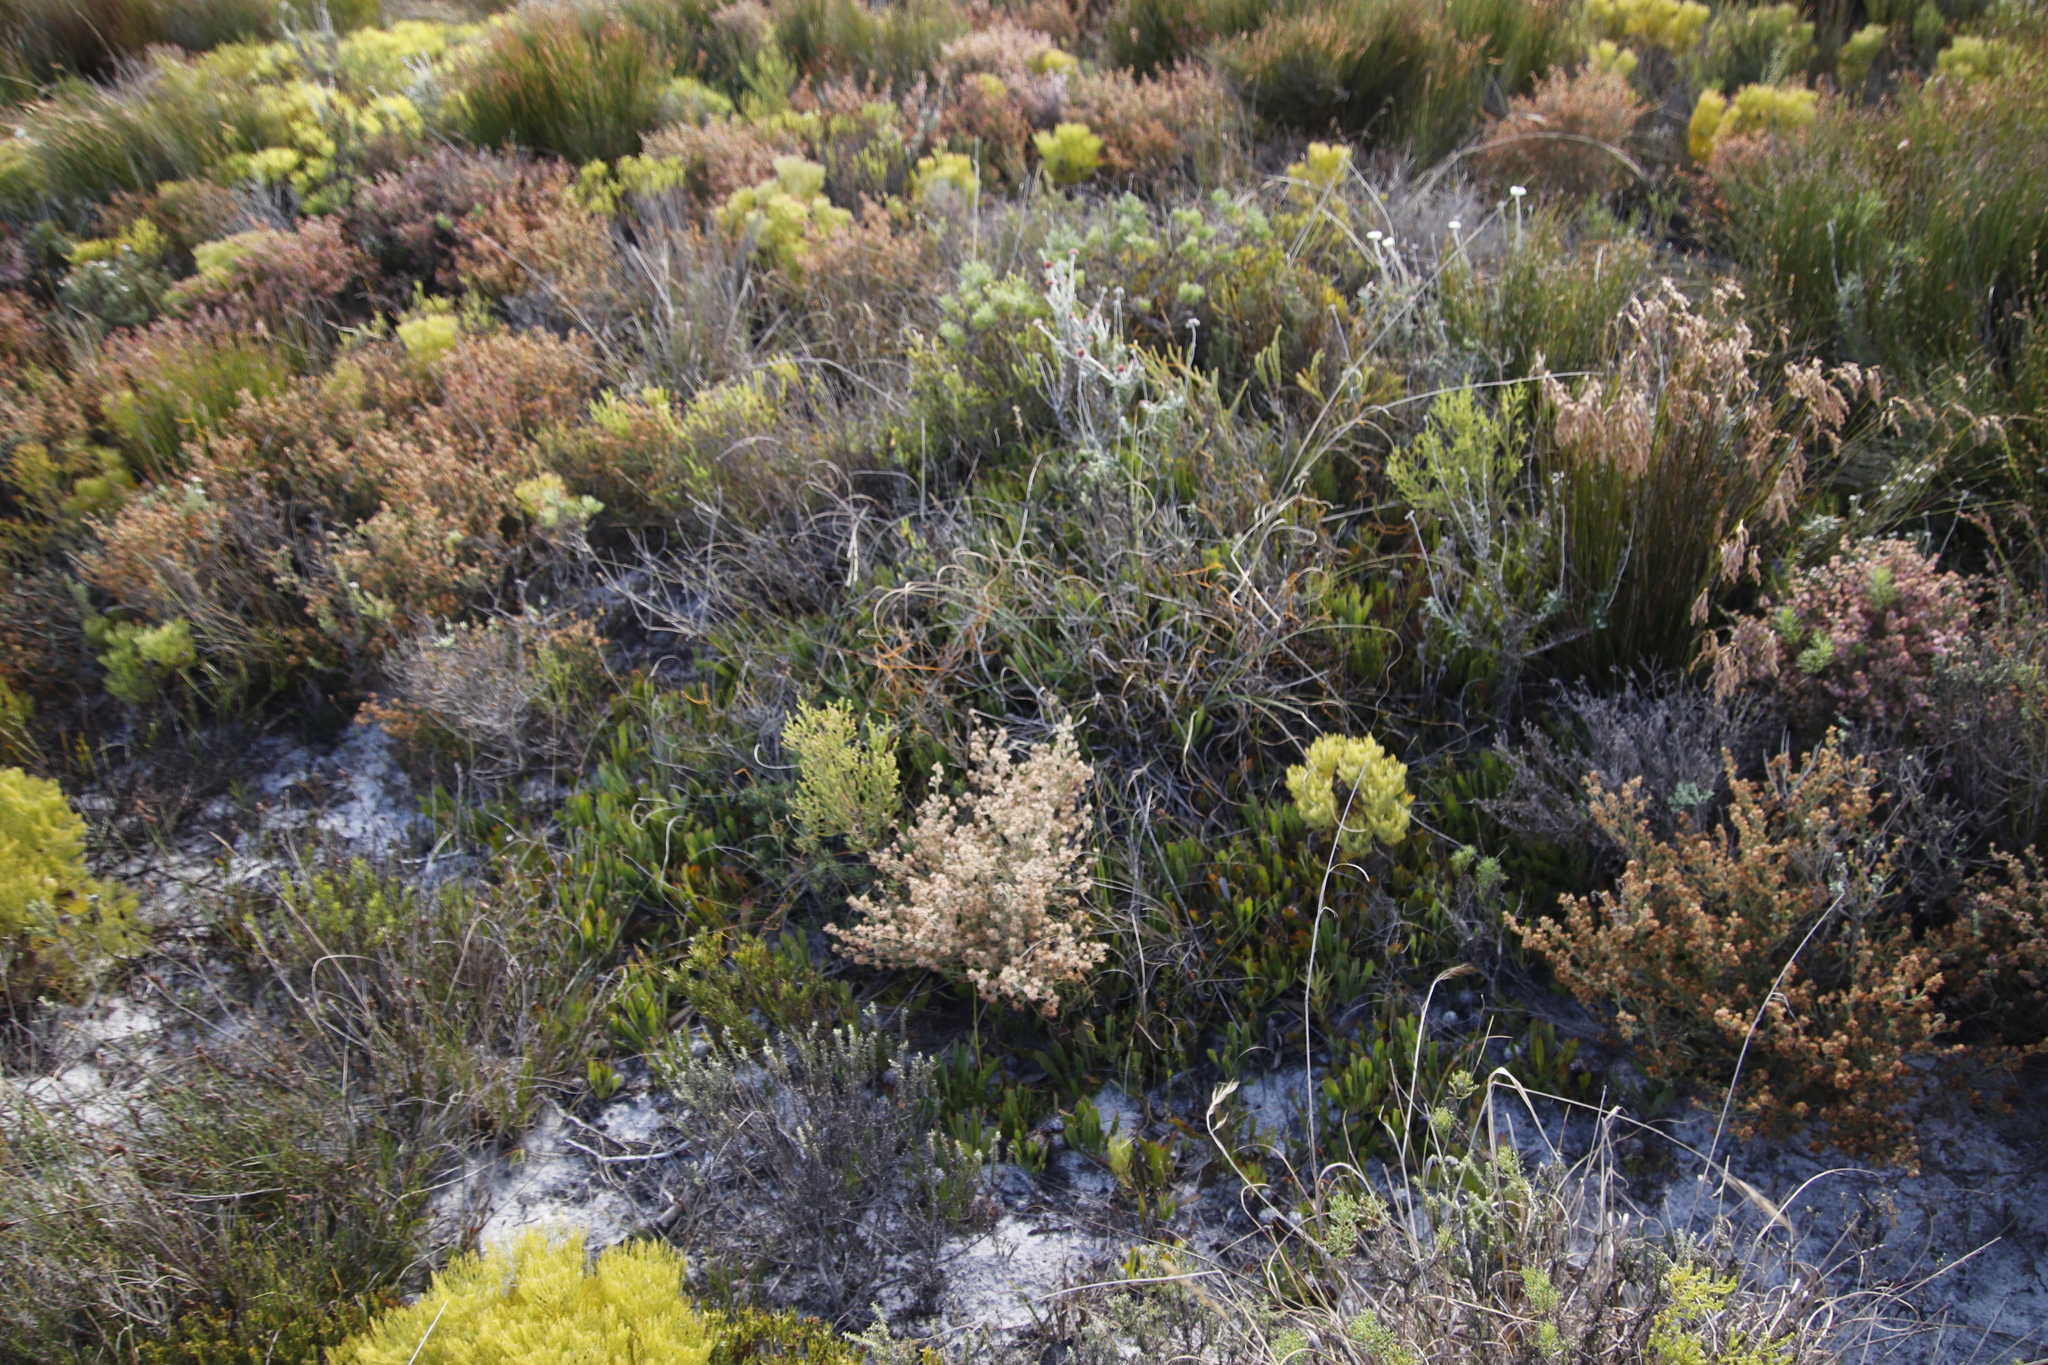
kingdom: Plantae
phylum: Tracheophyta
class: Magnoliopsida
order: Proteales
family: Proteaceae
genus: Leucospermum
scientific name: Leucospermum hypophyllocarpodendron
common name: Snakestem pincushion
